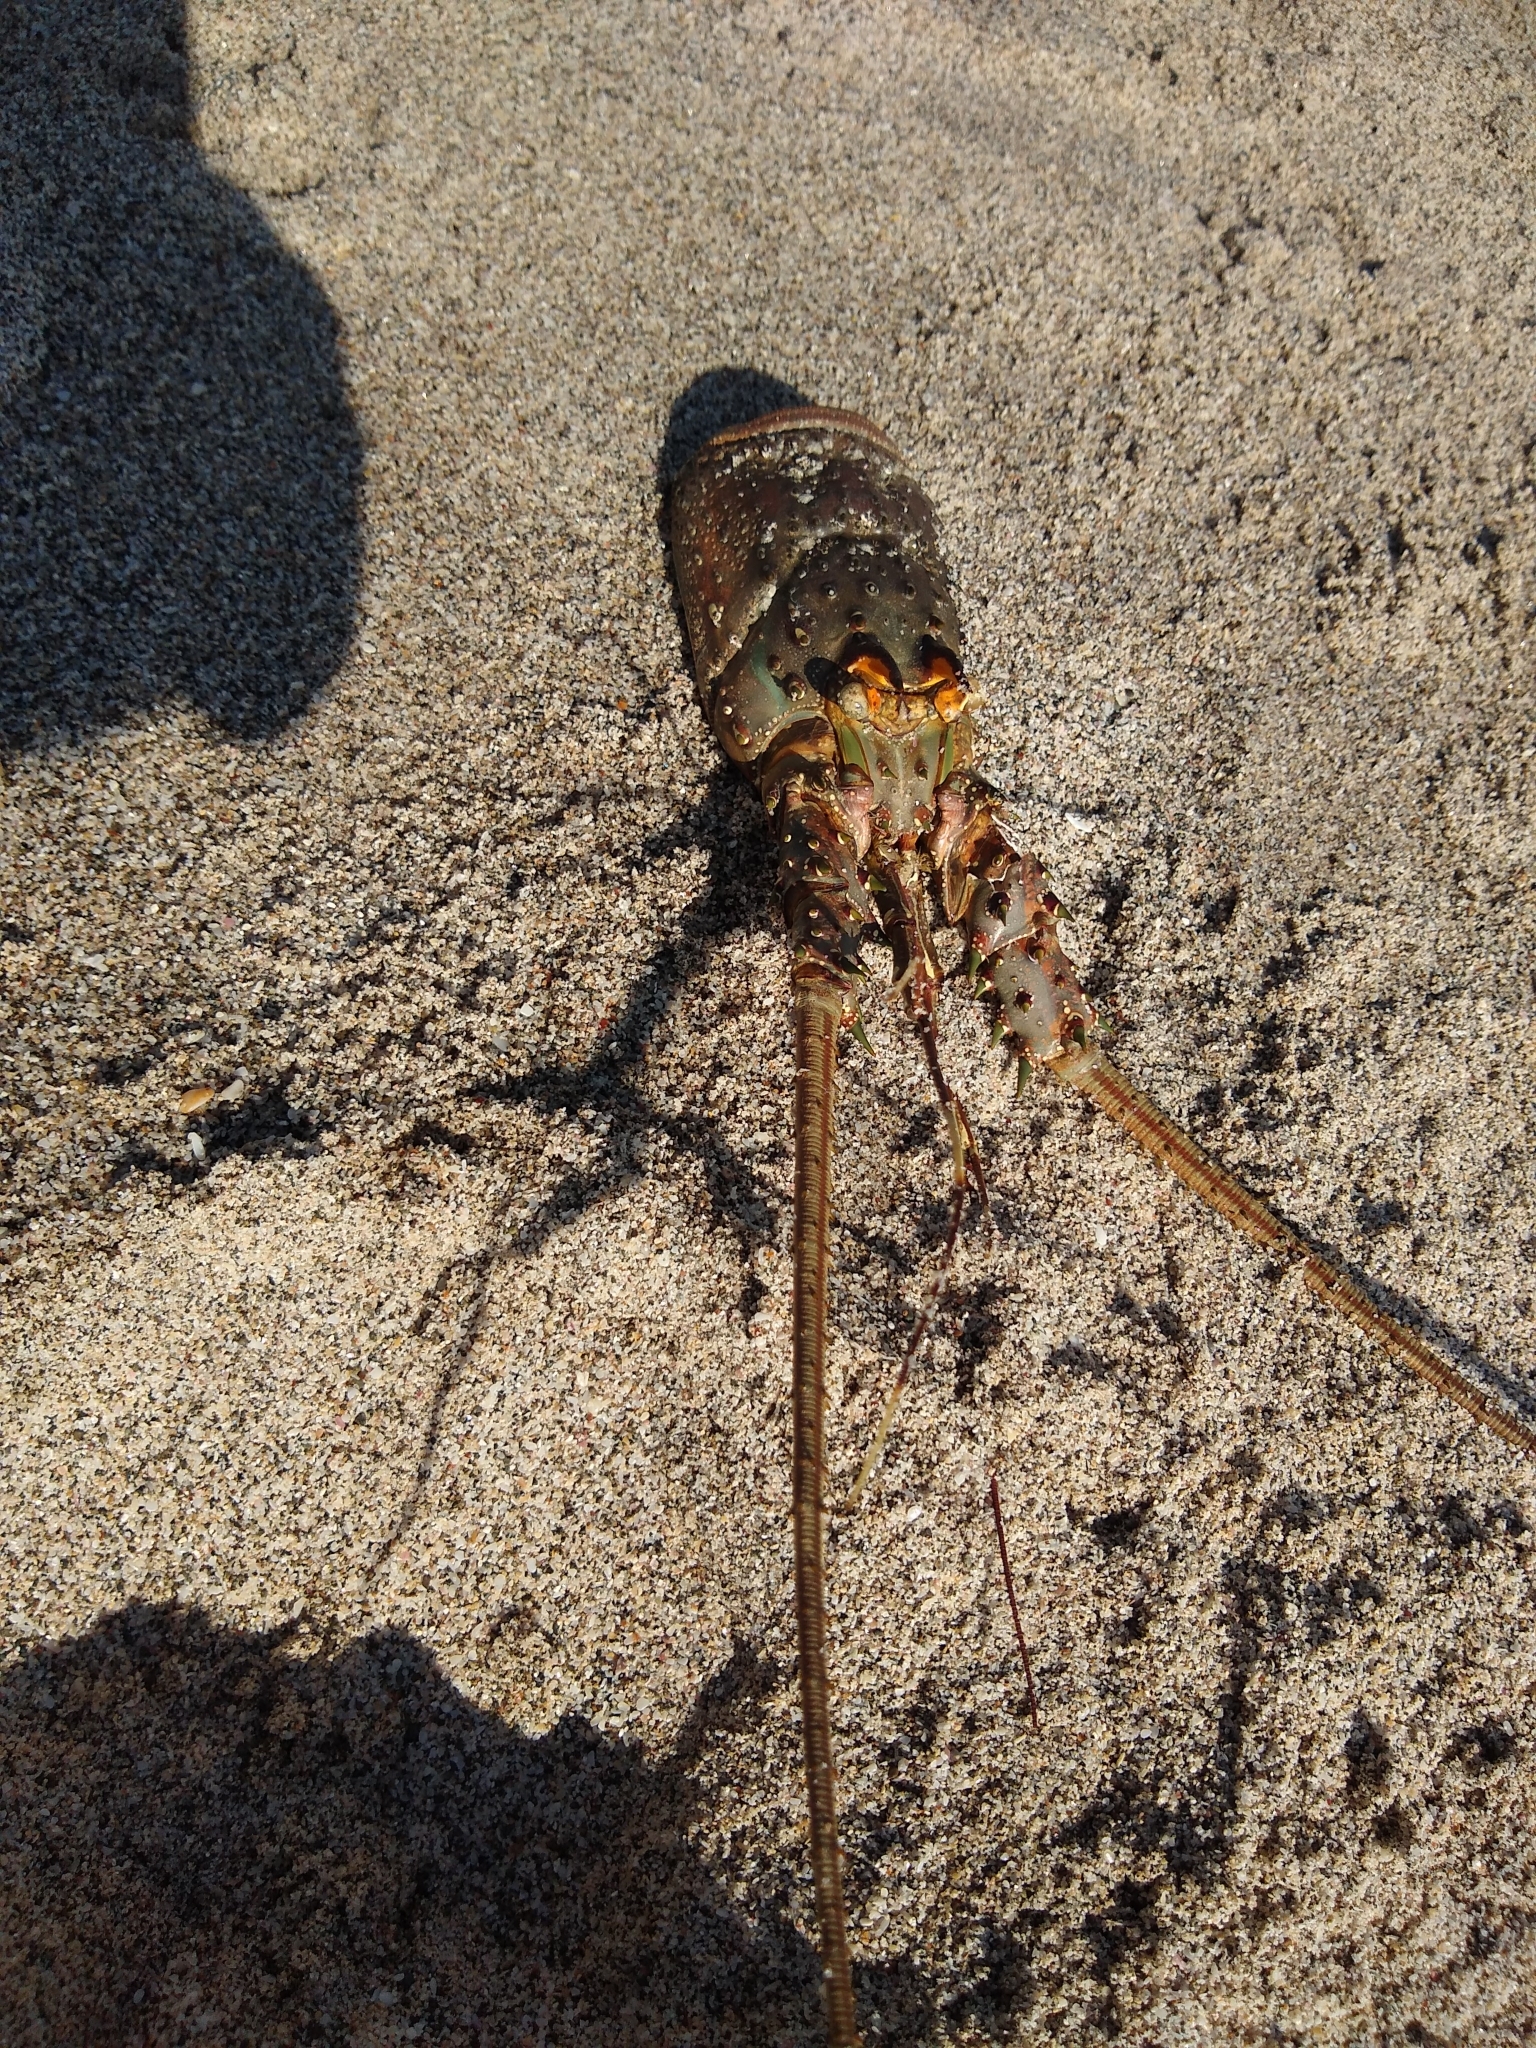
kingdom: Animalia
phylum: Arthropoda
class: Malacostraca
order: Decapoda
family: Palinuridae
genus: Panulirus
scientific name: Panulirus gracilis
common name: Green spiny lobster
